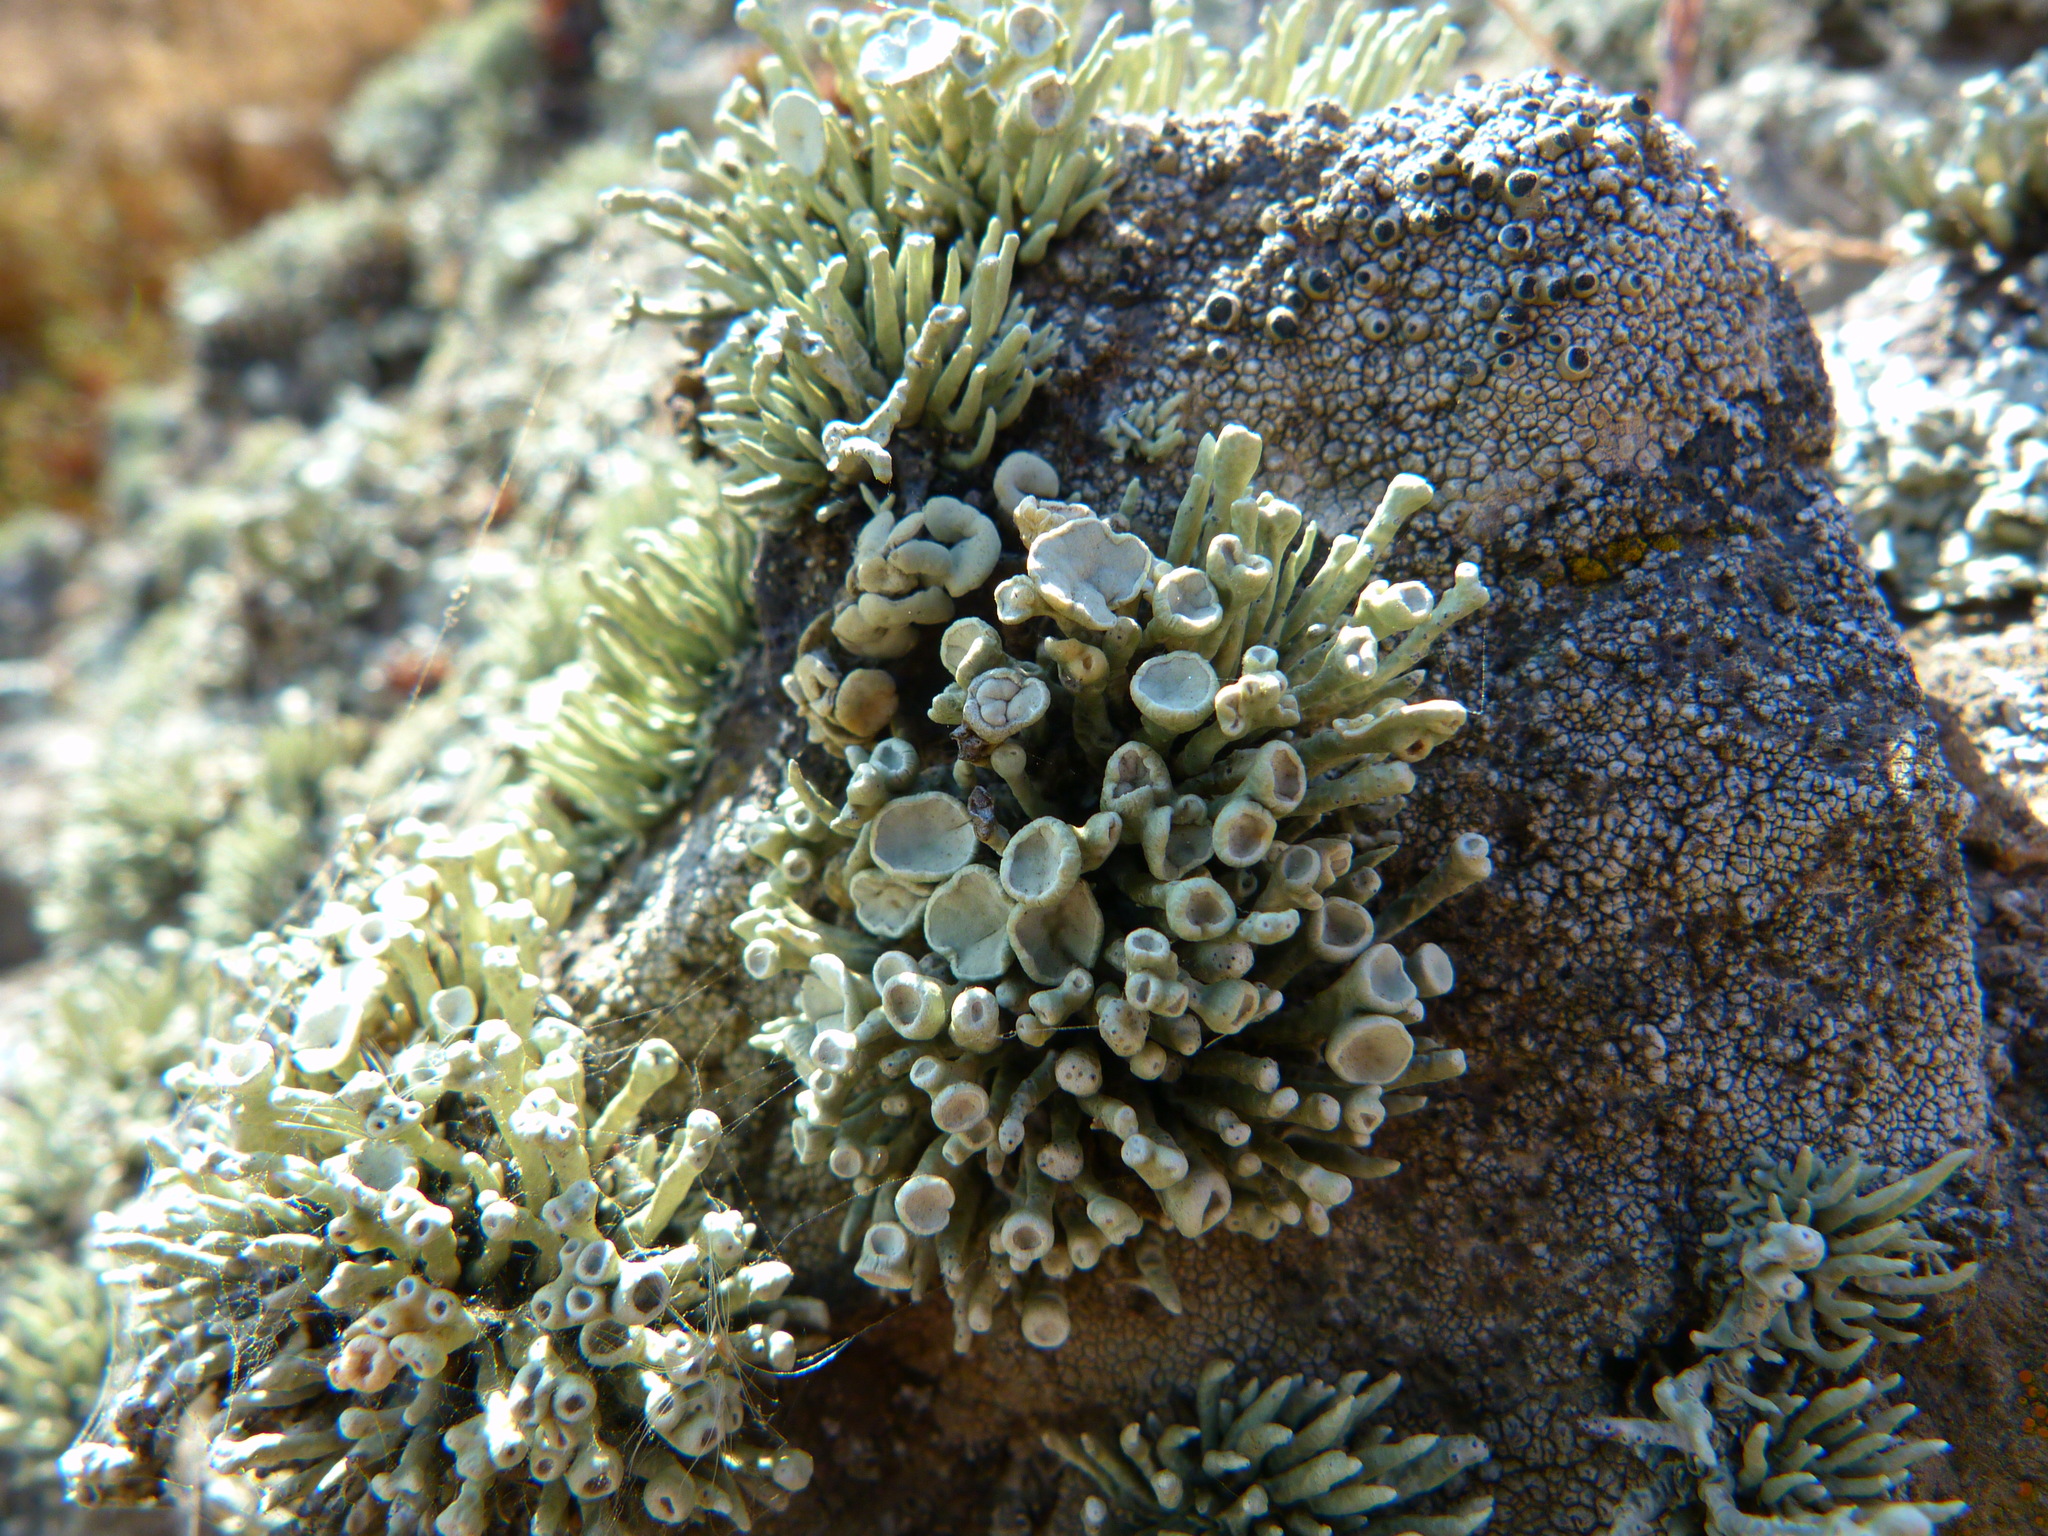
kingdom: Fungi
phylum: Ascomycota
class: Lecanoromycetes
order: Lecanorales
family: Ramalinaceae
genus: Niebla
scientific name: Niebla combeoides
